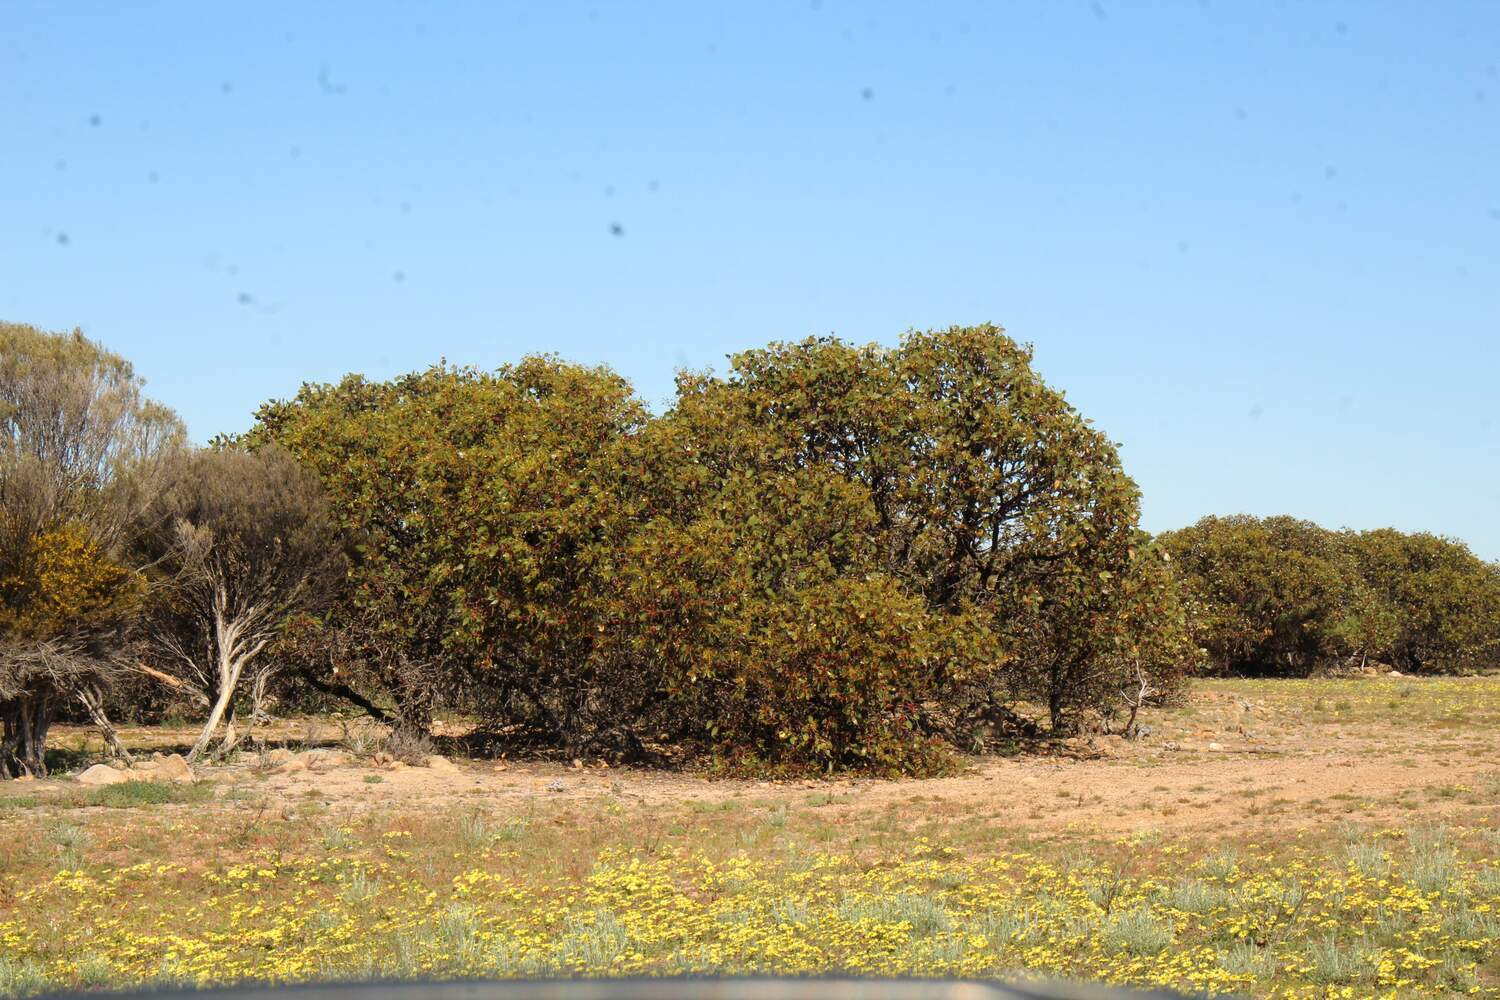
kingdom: Plantae
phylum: Tracheophyta
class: Magnoliopsida
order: Myrtales
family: Myrtaceae
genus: Eucalyptus
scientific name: Eucalyptus grossa
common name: Coarse-leaved mallee
